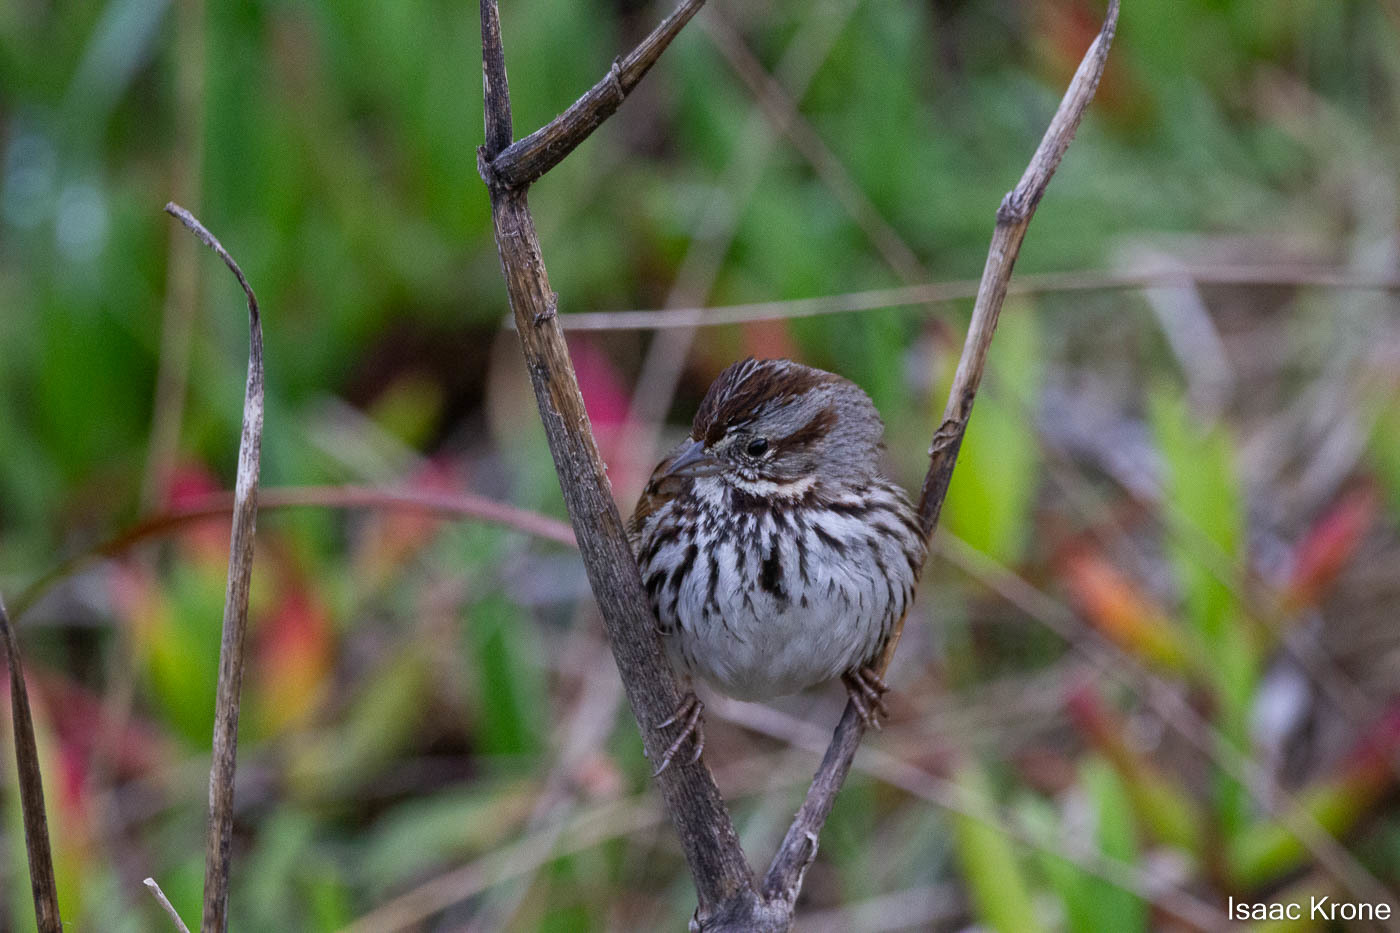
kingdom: Animalia
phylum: Chordata
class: Aves
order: Passeriformes
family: Passerellidae
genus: Melospiza
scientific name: Melospiza melodia
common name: Song sparrow
